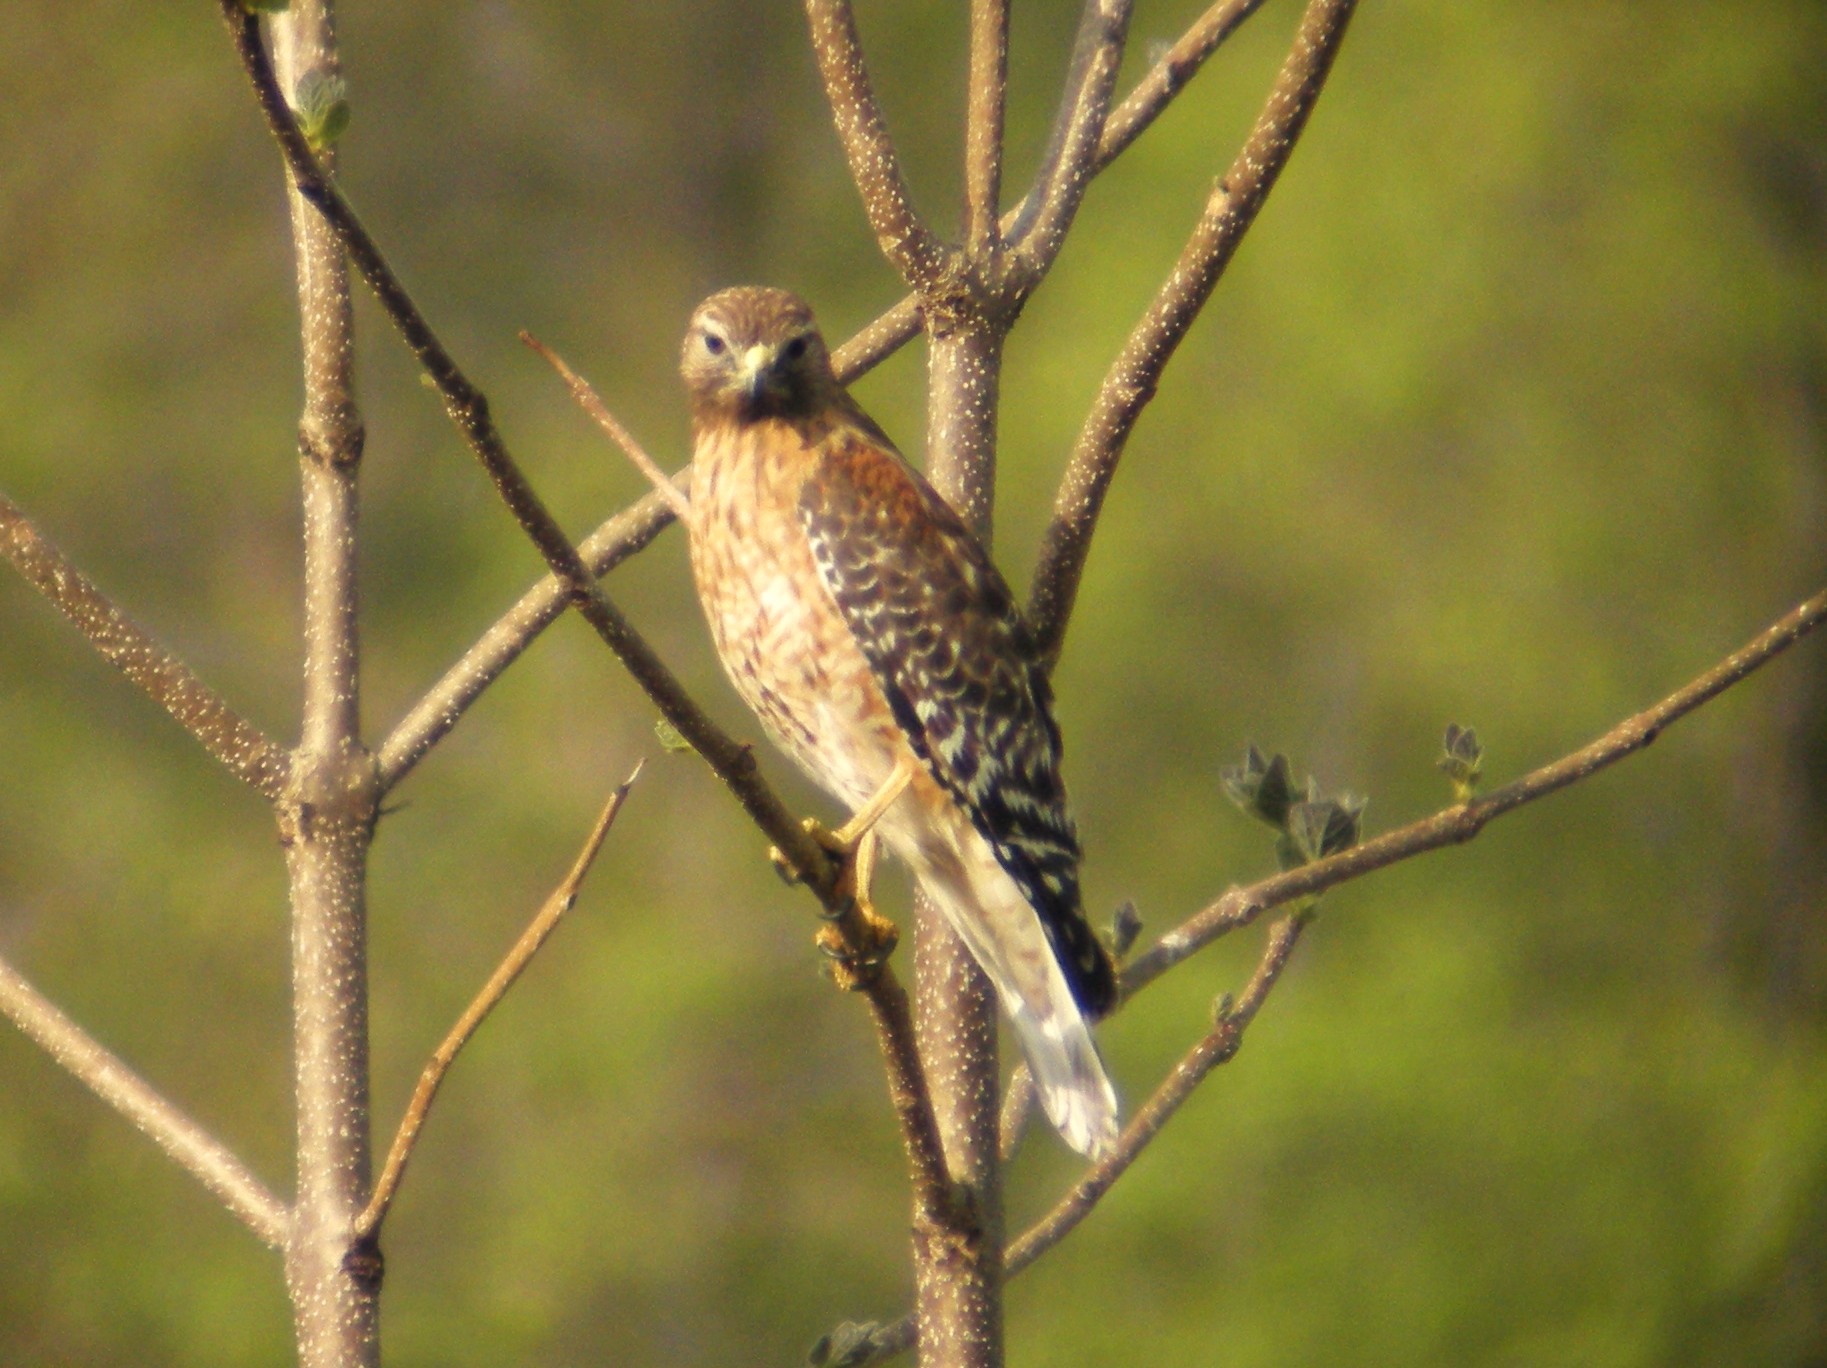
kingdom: Animalia
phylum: Chordata
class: Aves
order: Accipitriformes
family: Accipitridae
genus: Buteo
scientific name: Buteo lineatus
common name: Red-shouldered hawk
